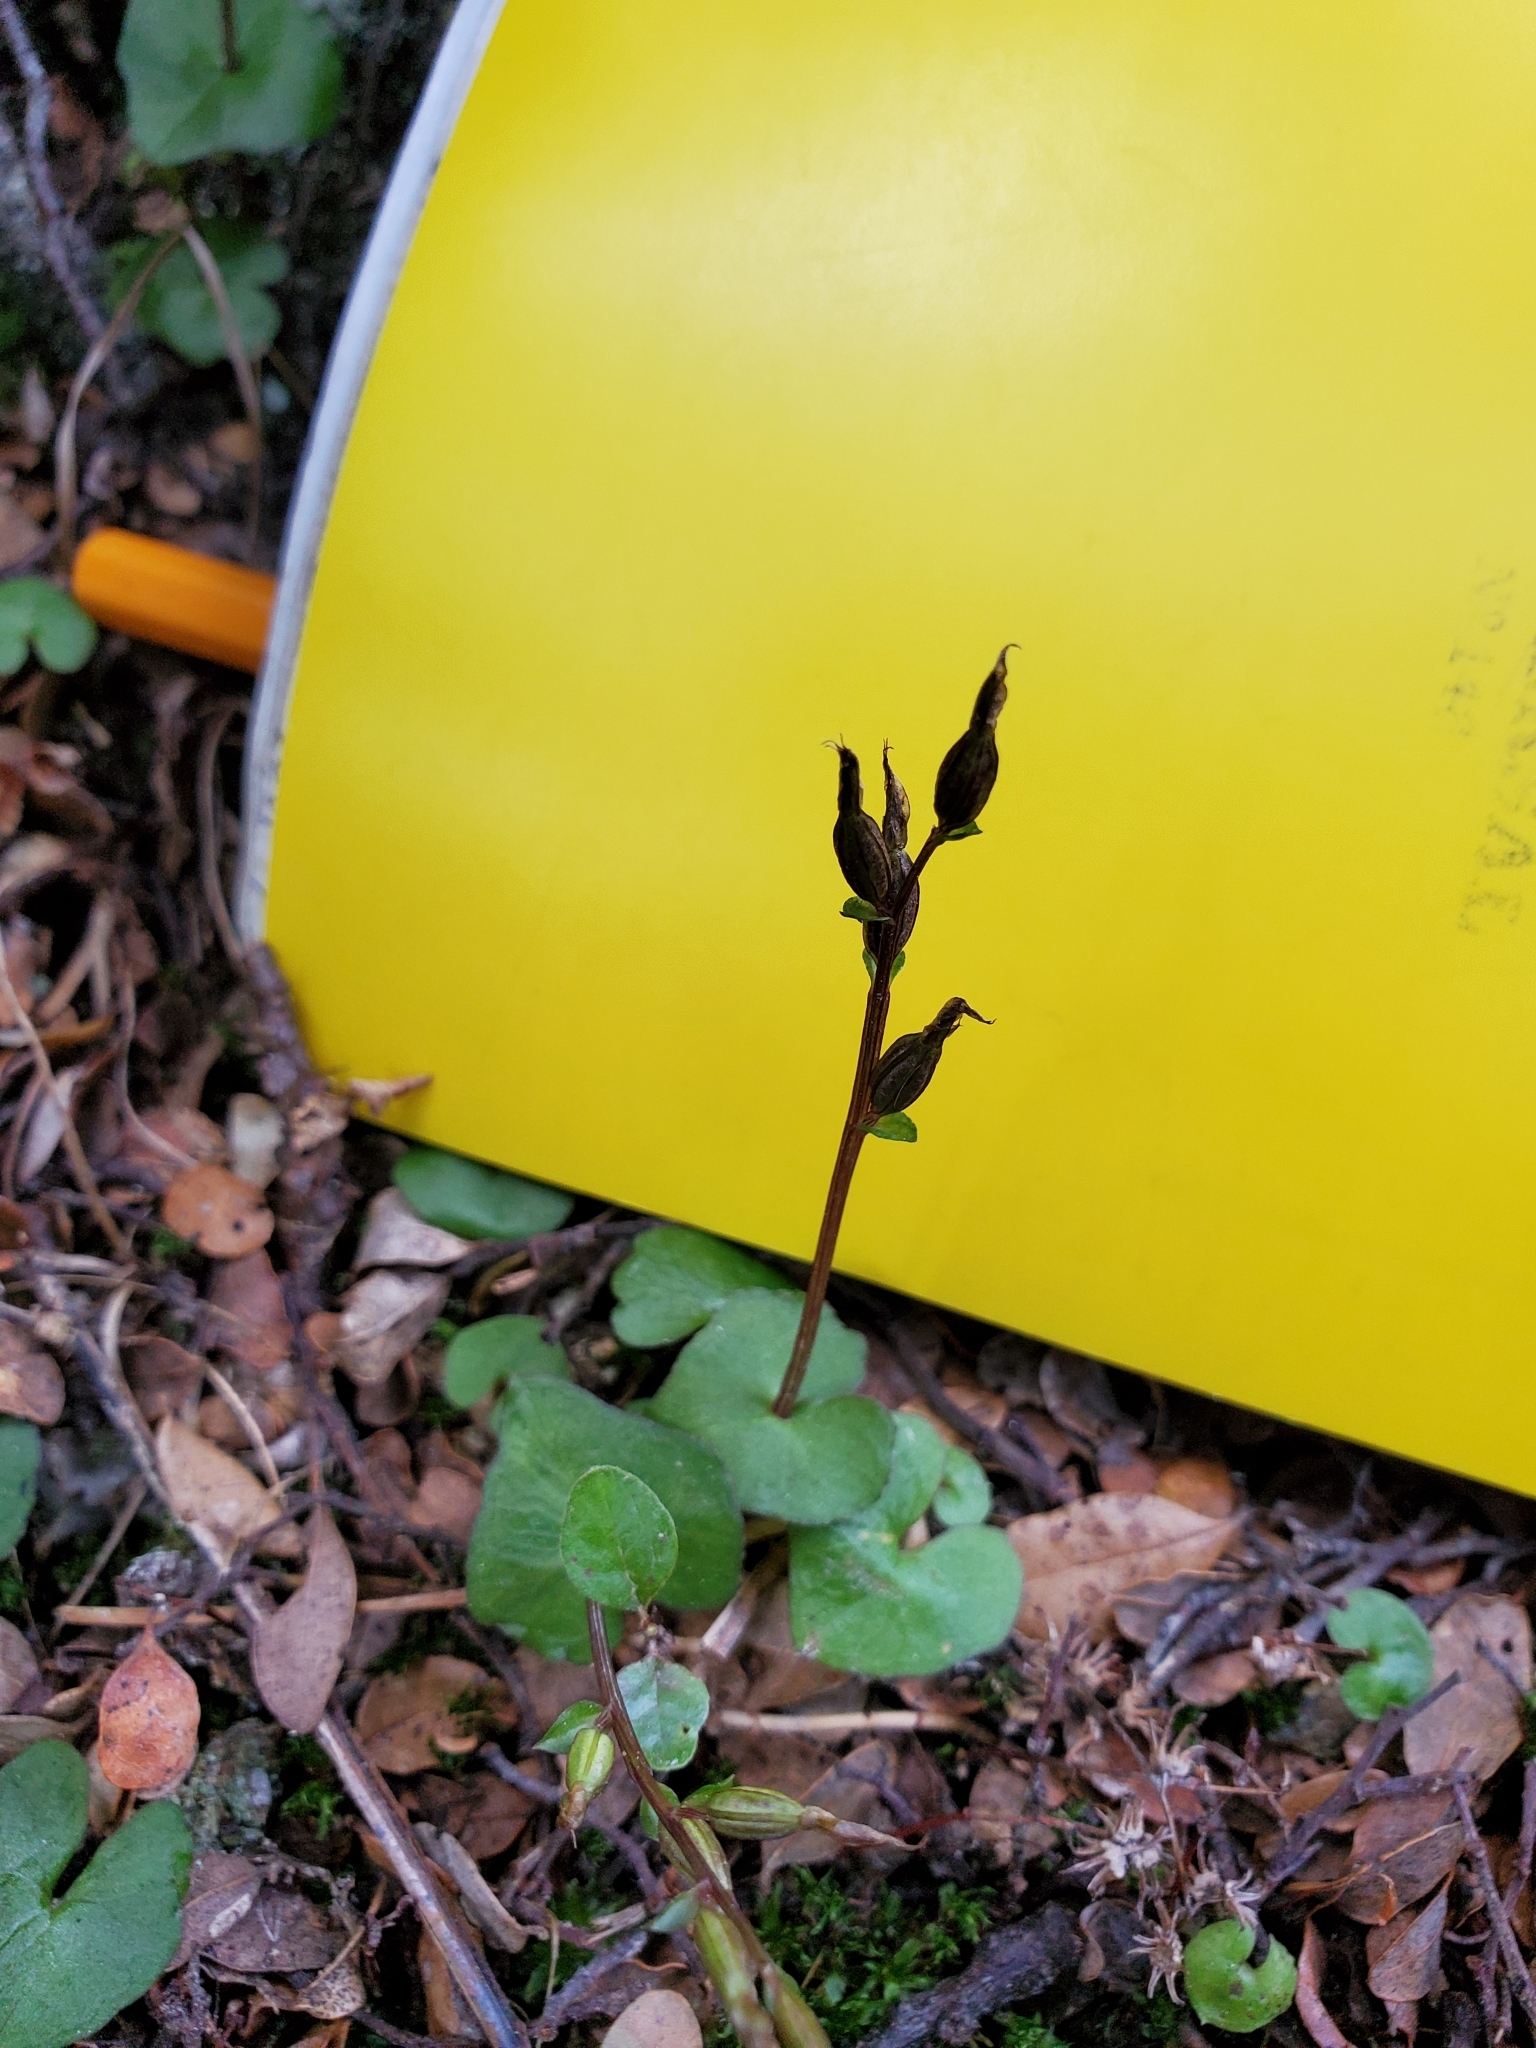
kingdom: Plantae
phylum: Tracheophyta
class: Liliopsida
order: Asparagales
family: Orchidaceae
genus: Acianthus
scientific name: Acianthus sinclairii
